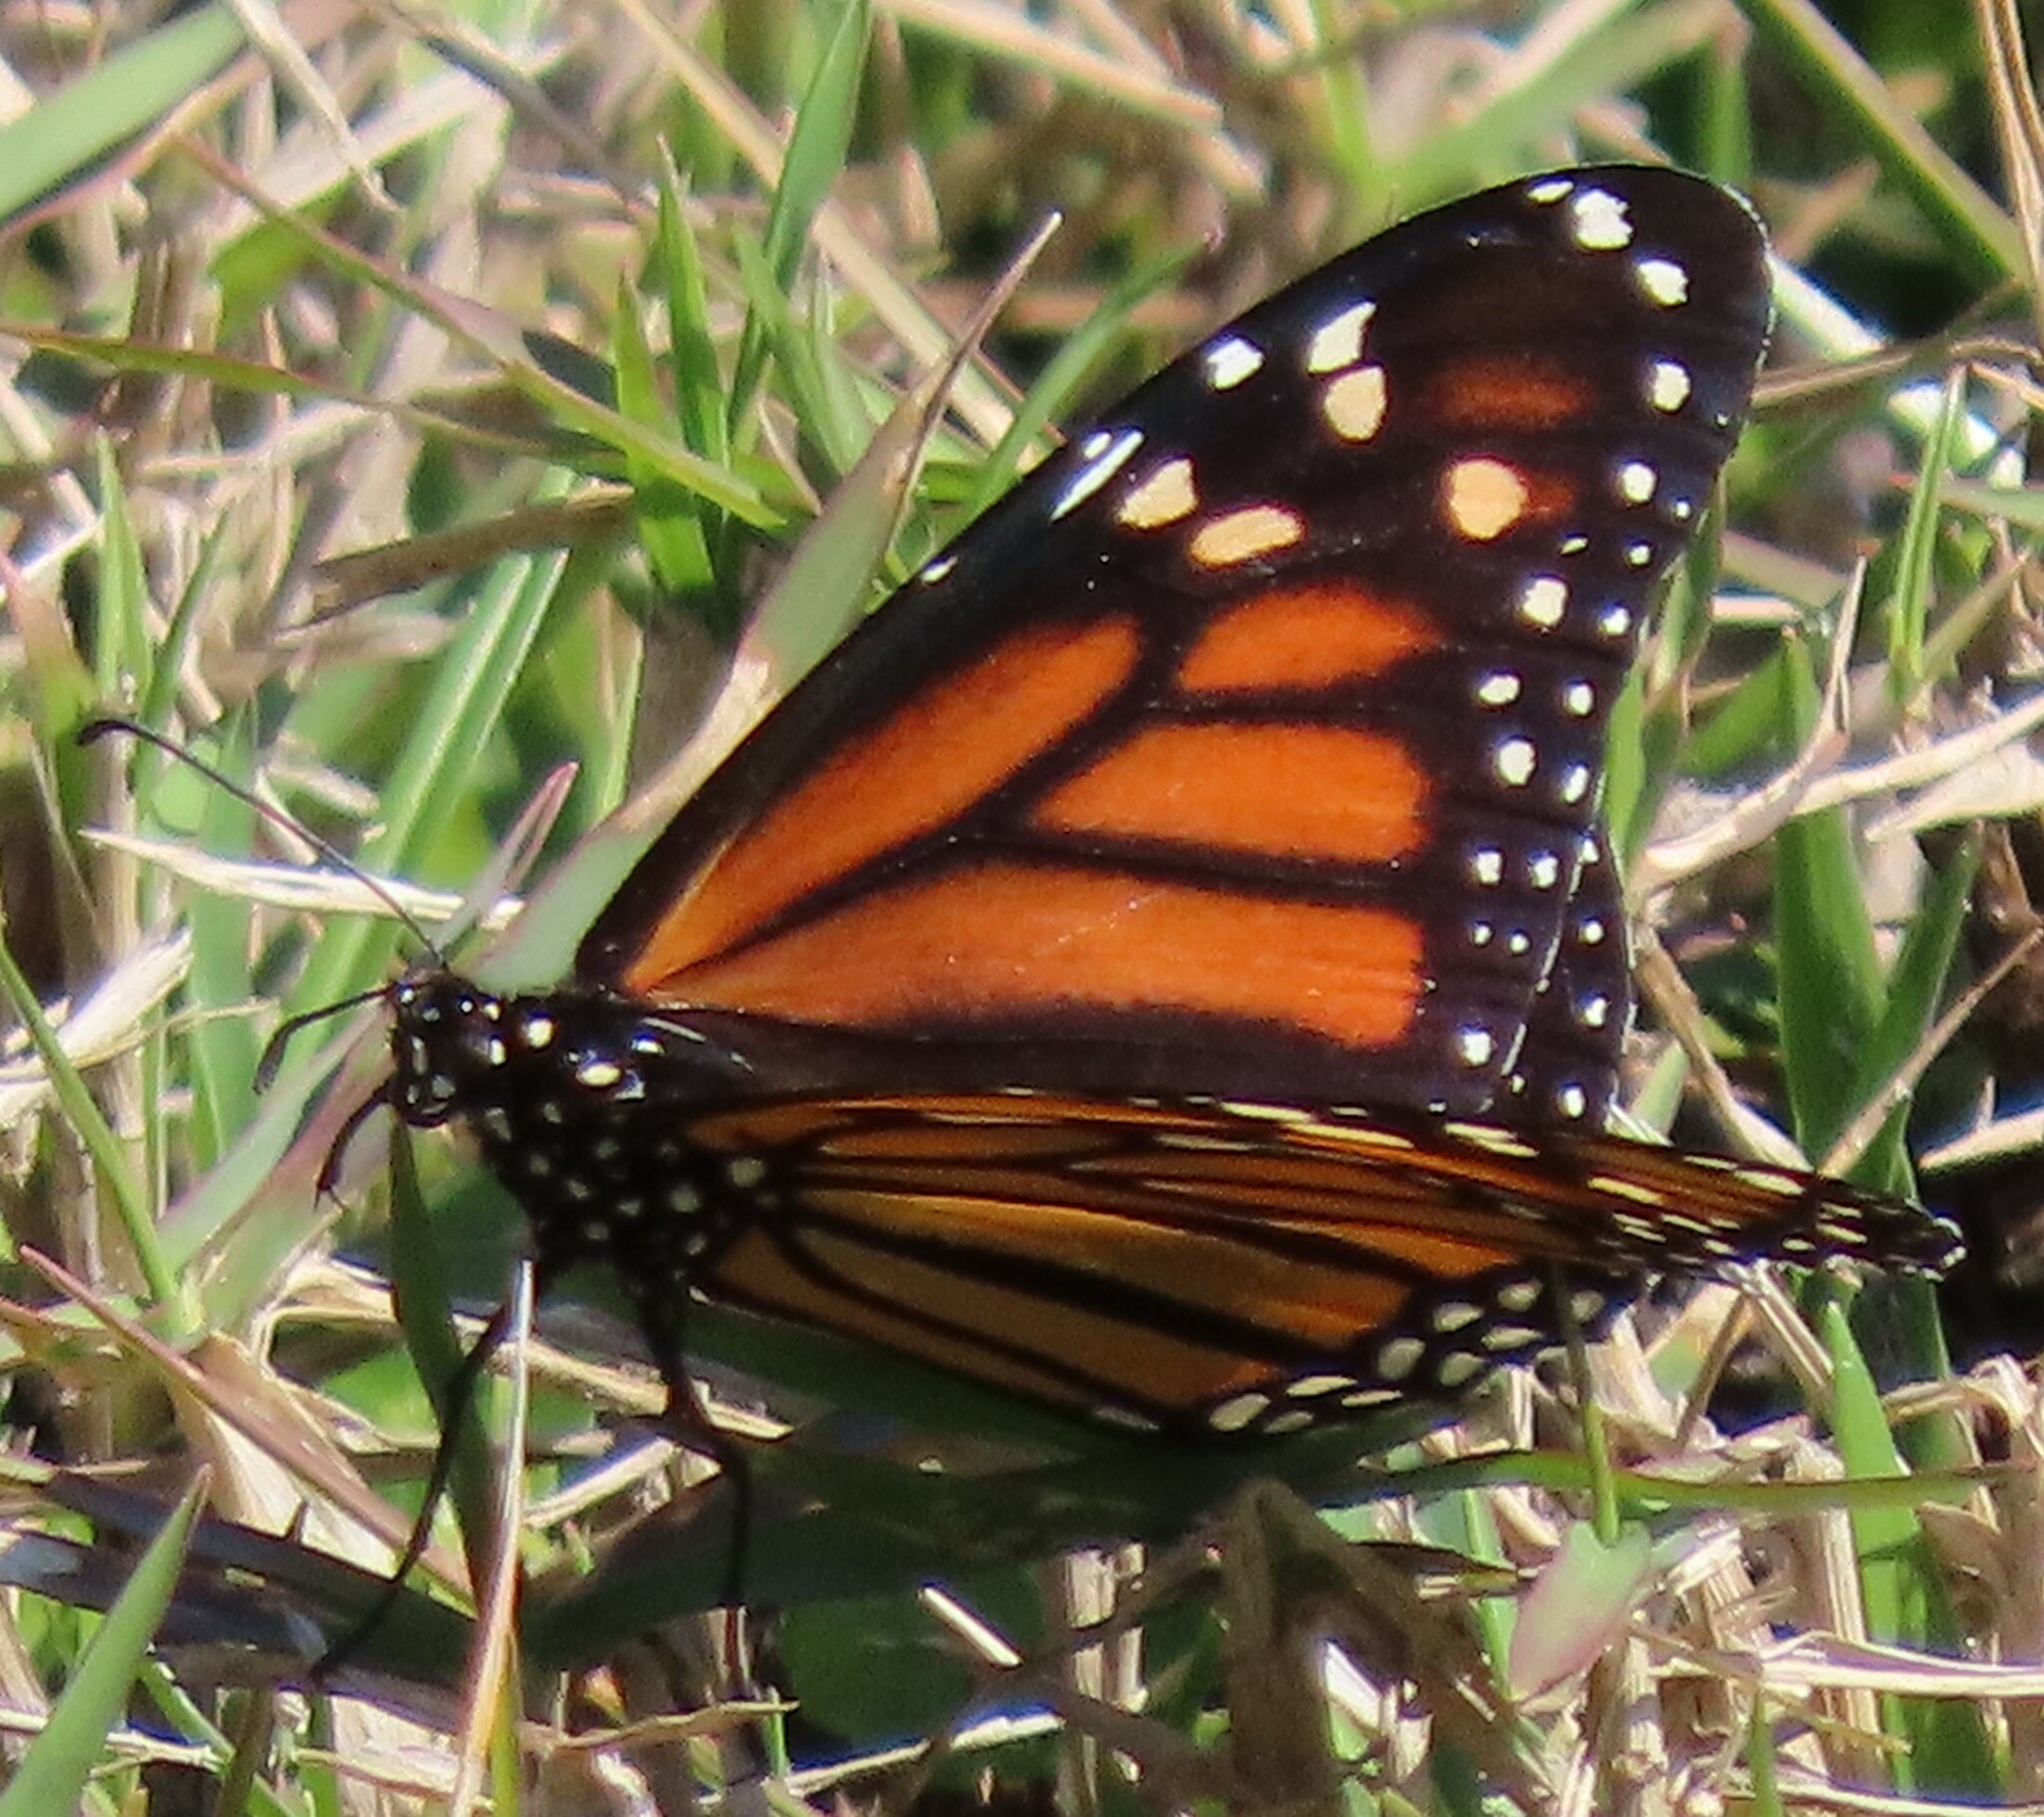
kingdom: Animalia
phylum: Arthropoda
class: Insecta
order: Lepidoptera
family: Nymphalidae
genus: Danaus
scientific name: Danaus plexippus
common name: Monarch
